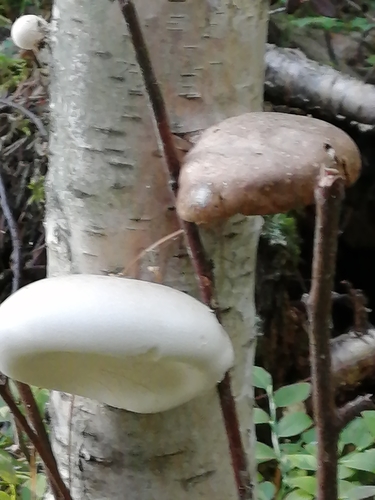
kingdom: Fungi
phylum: Basidiomycota
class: Agaricomycetes
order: Polyporales
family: Fomitopsidaceae
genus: Fomitopsis
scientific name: Fomitopsis betulina
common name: Birch polypore
